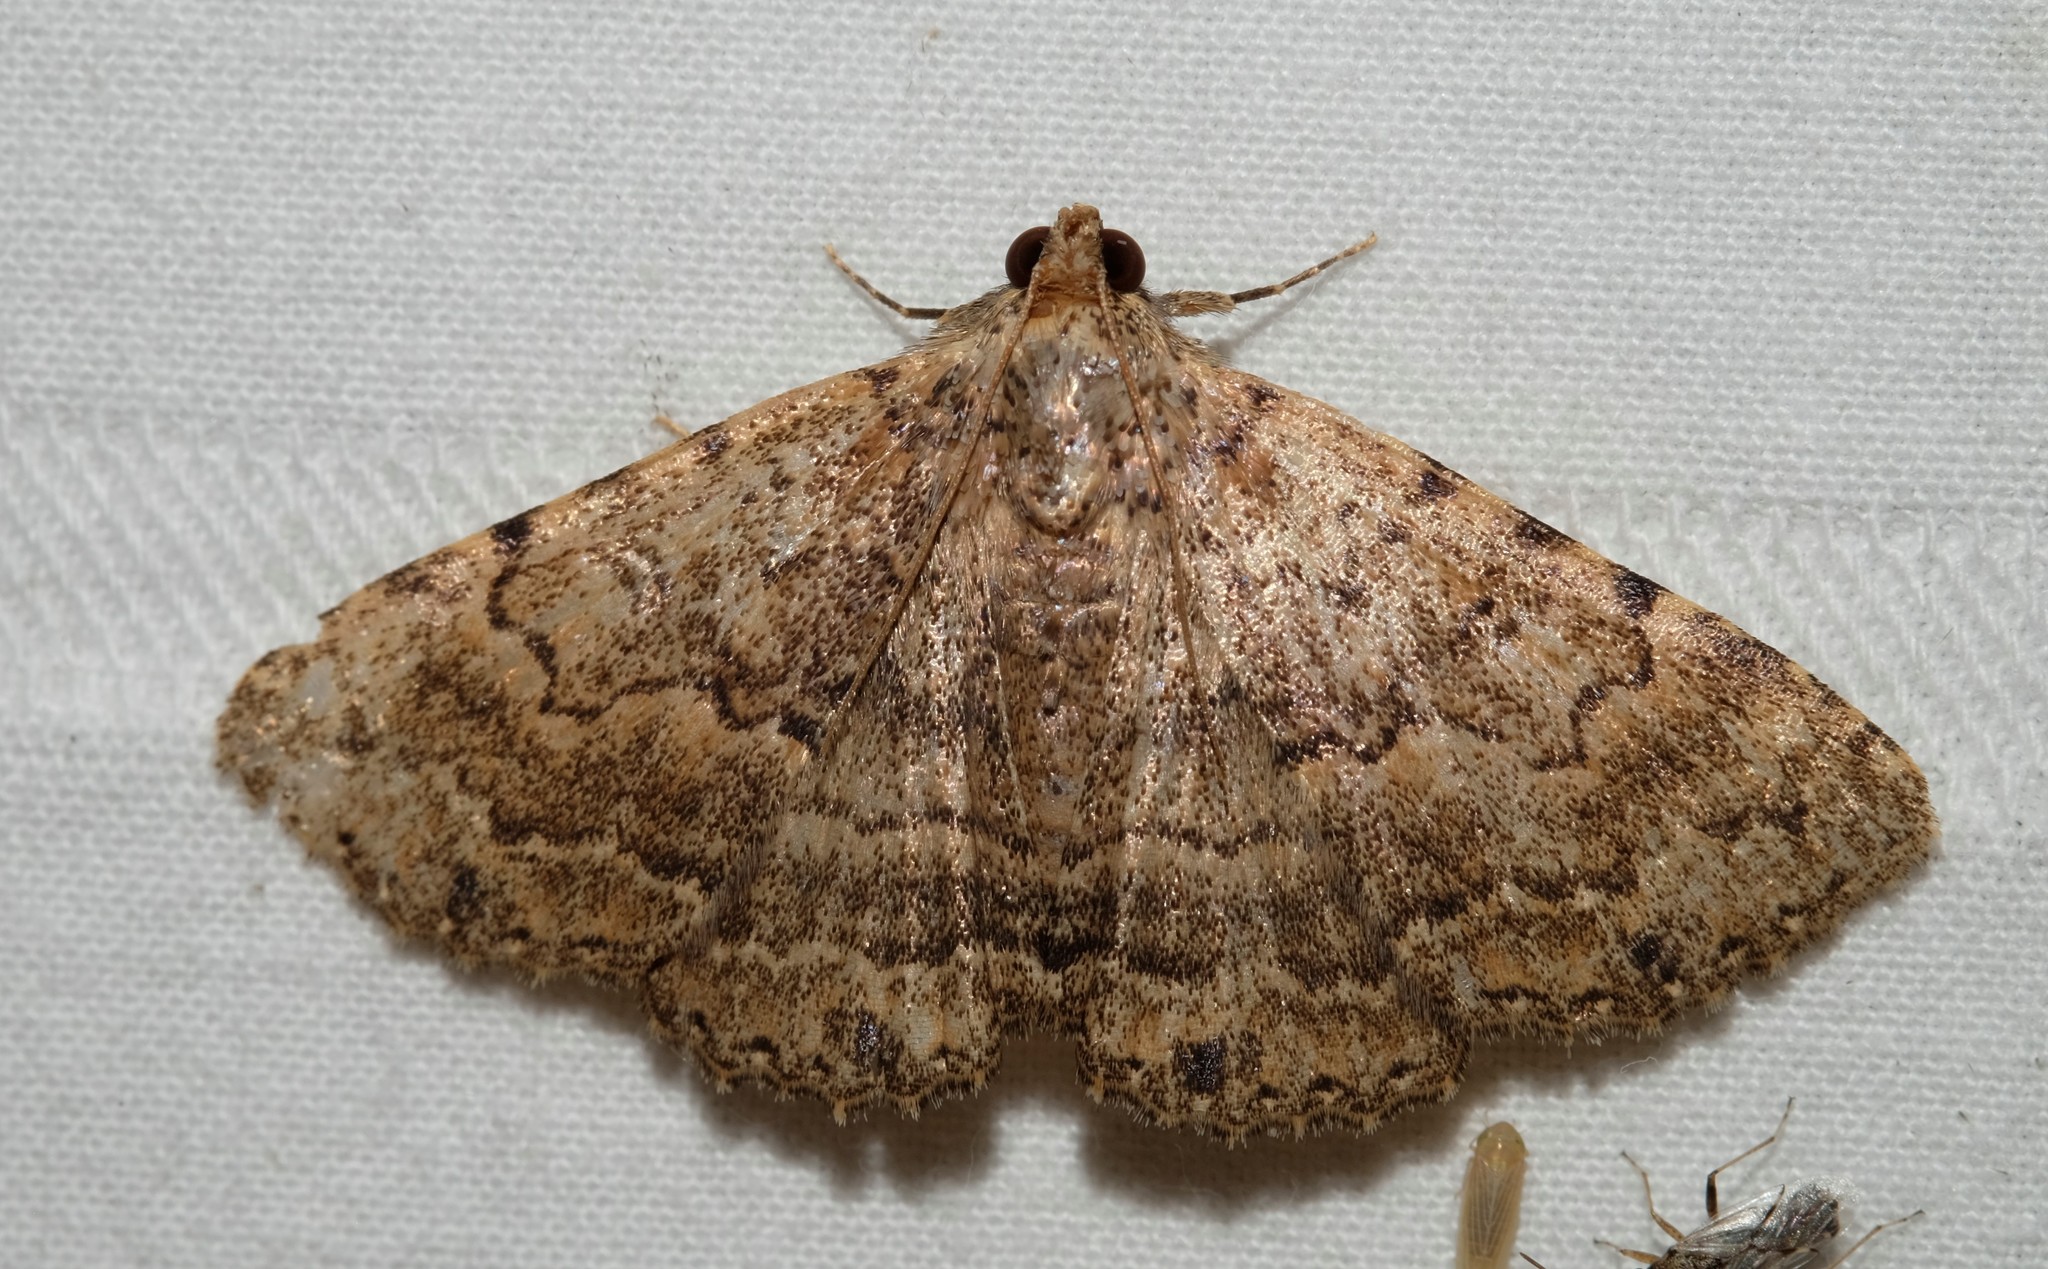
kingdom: Animalia
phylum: Arthropoda
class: Insecta
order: Lepidoptera
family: Erebidae
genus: Diatenes
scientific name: Diatenes aglossoides
